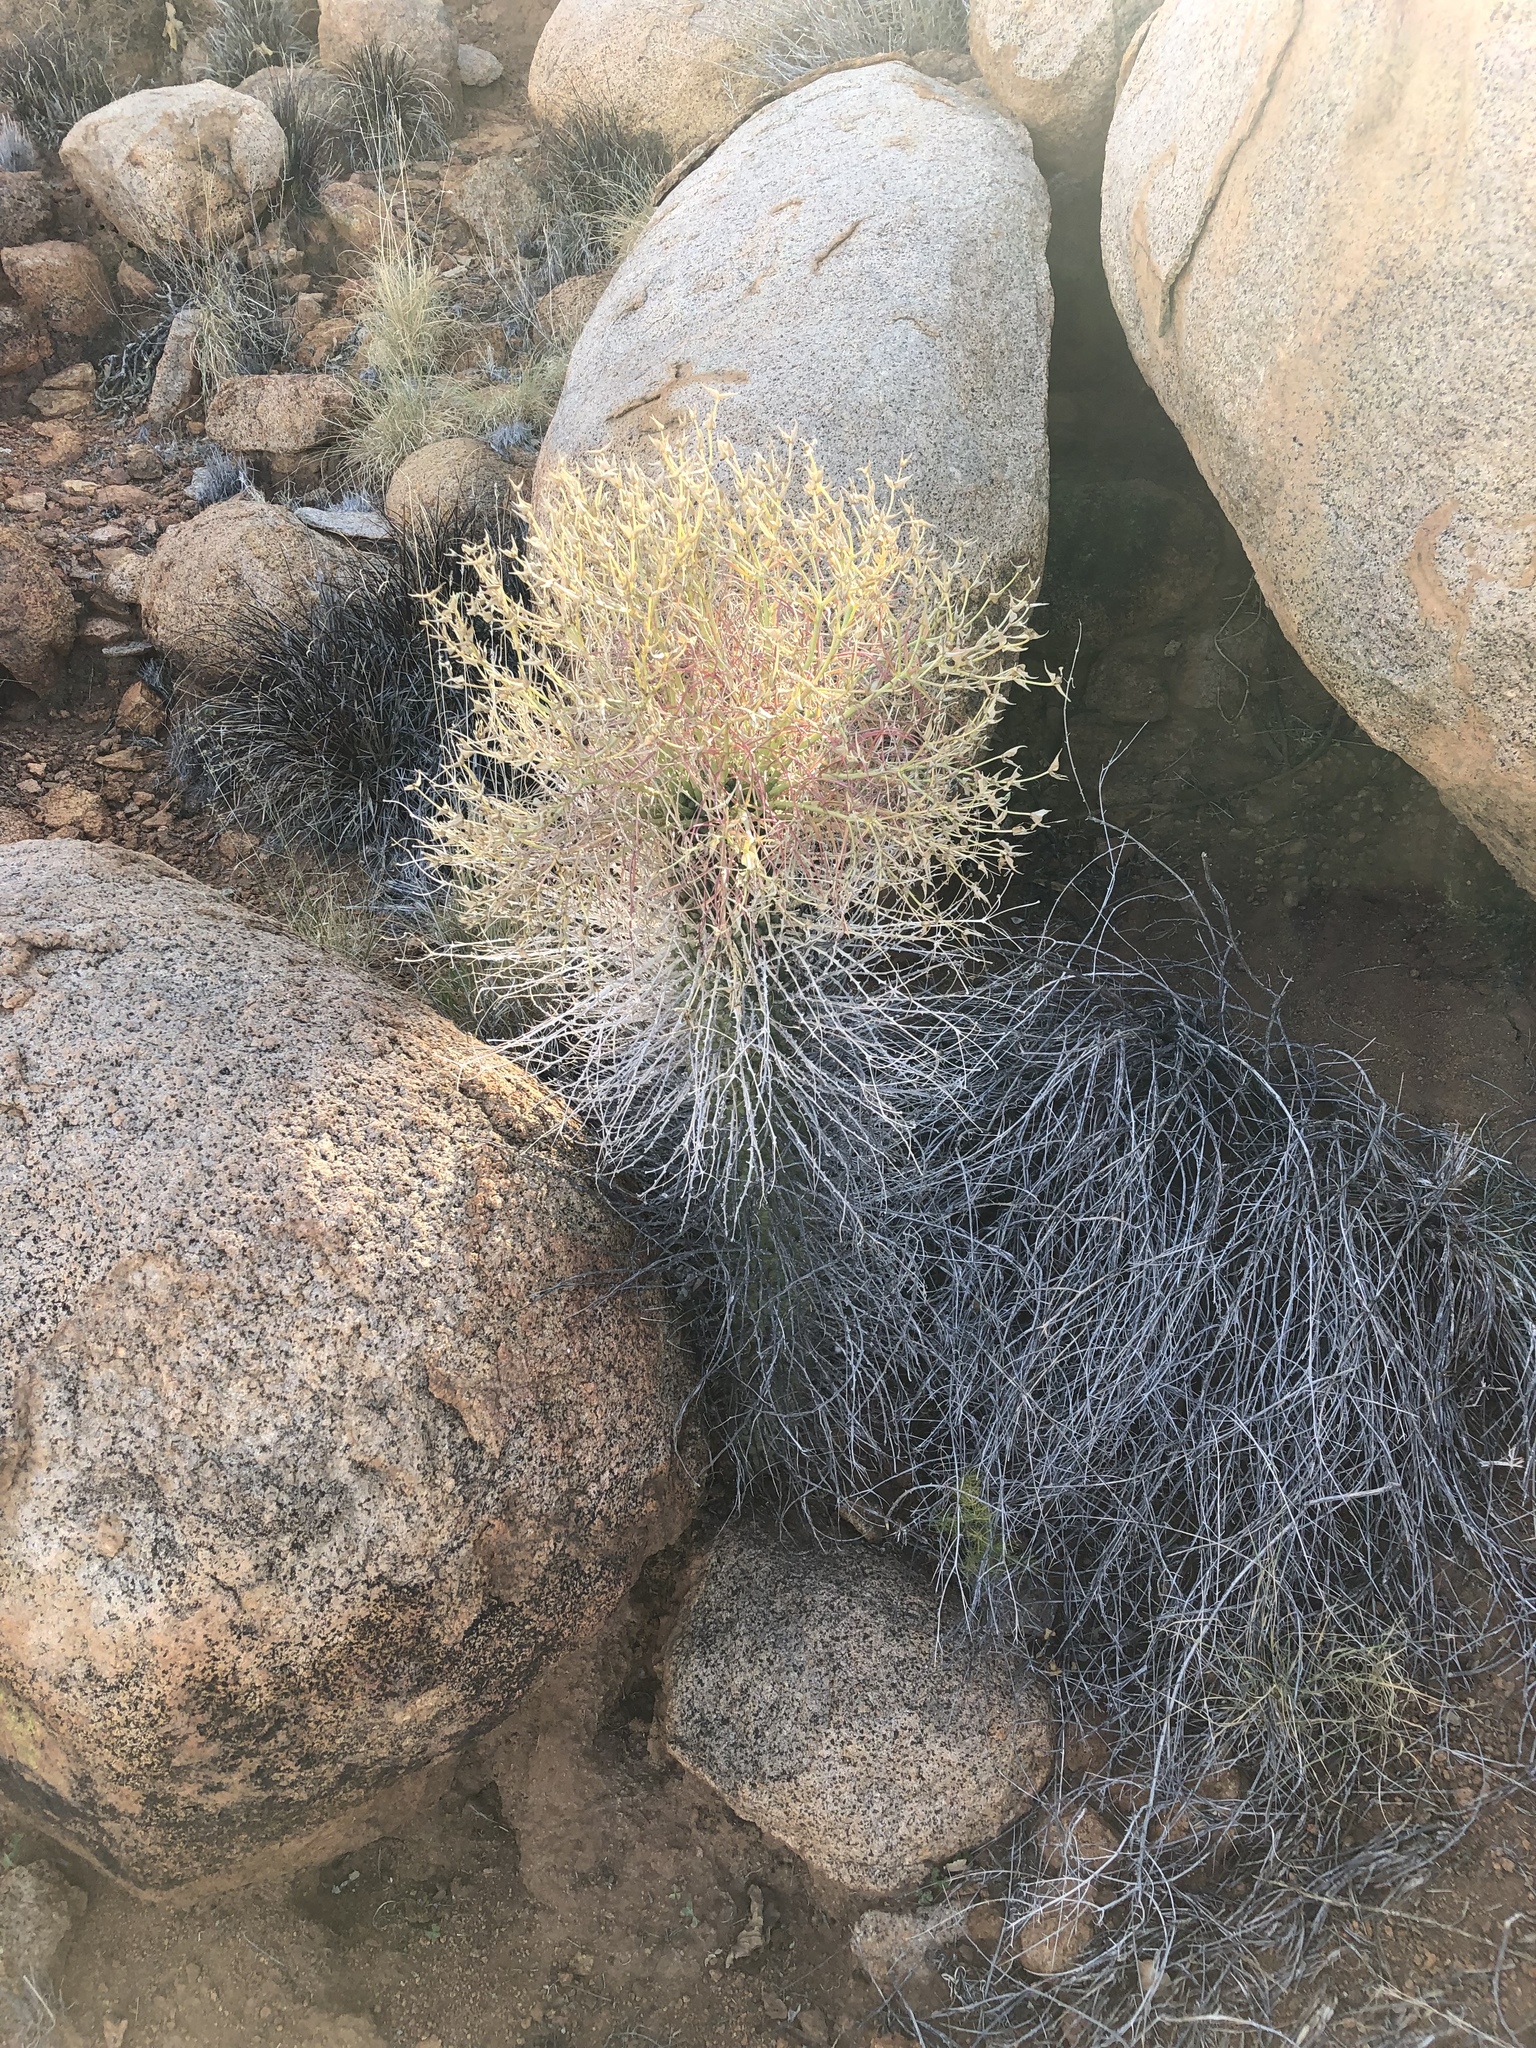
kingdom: Plantae
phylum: Tracheophyta
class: Magnoliopsida
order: Malpighiales
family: Euphorbiaceae
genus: Euphorbia
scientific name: Euphorbia monteiroi
